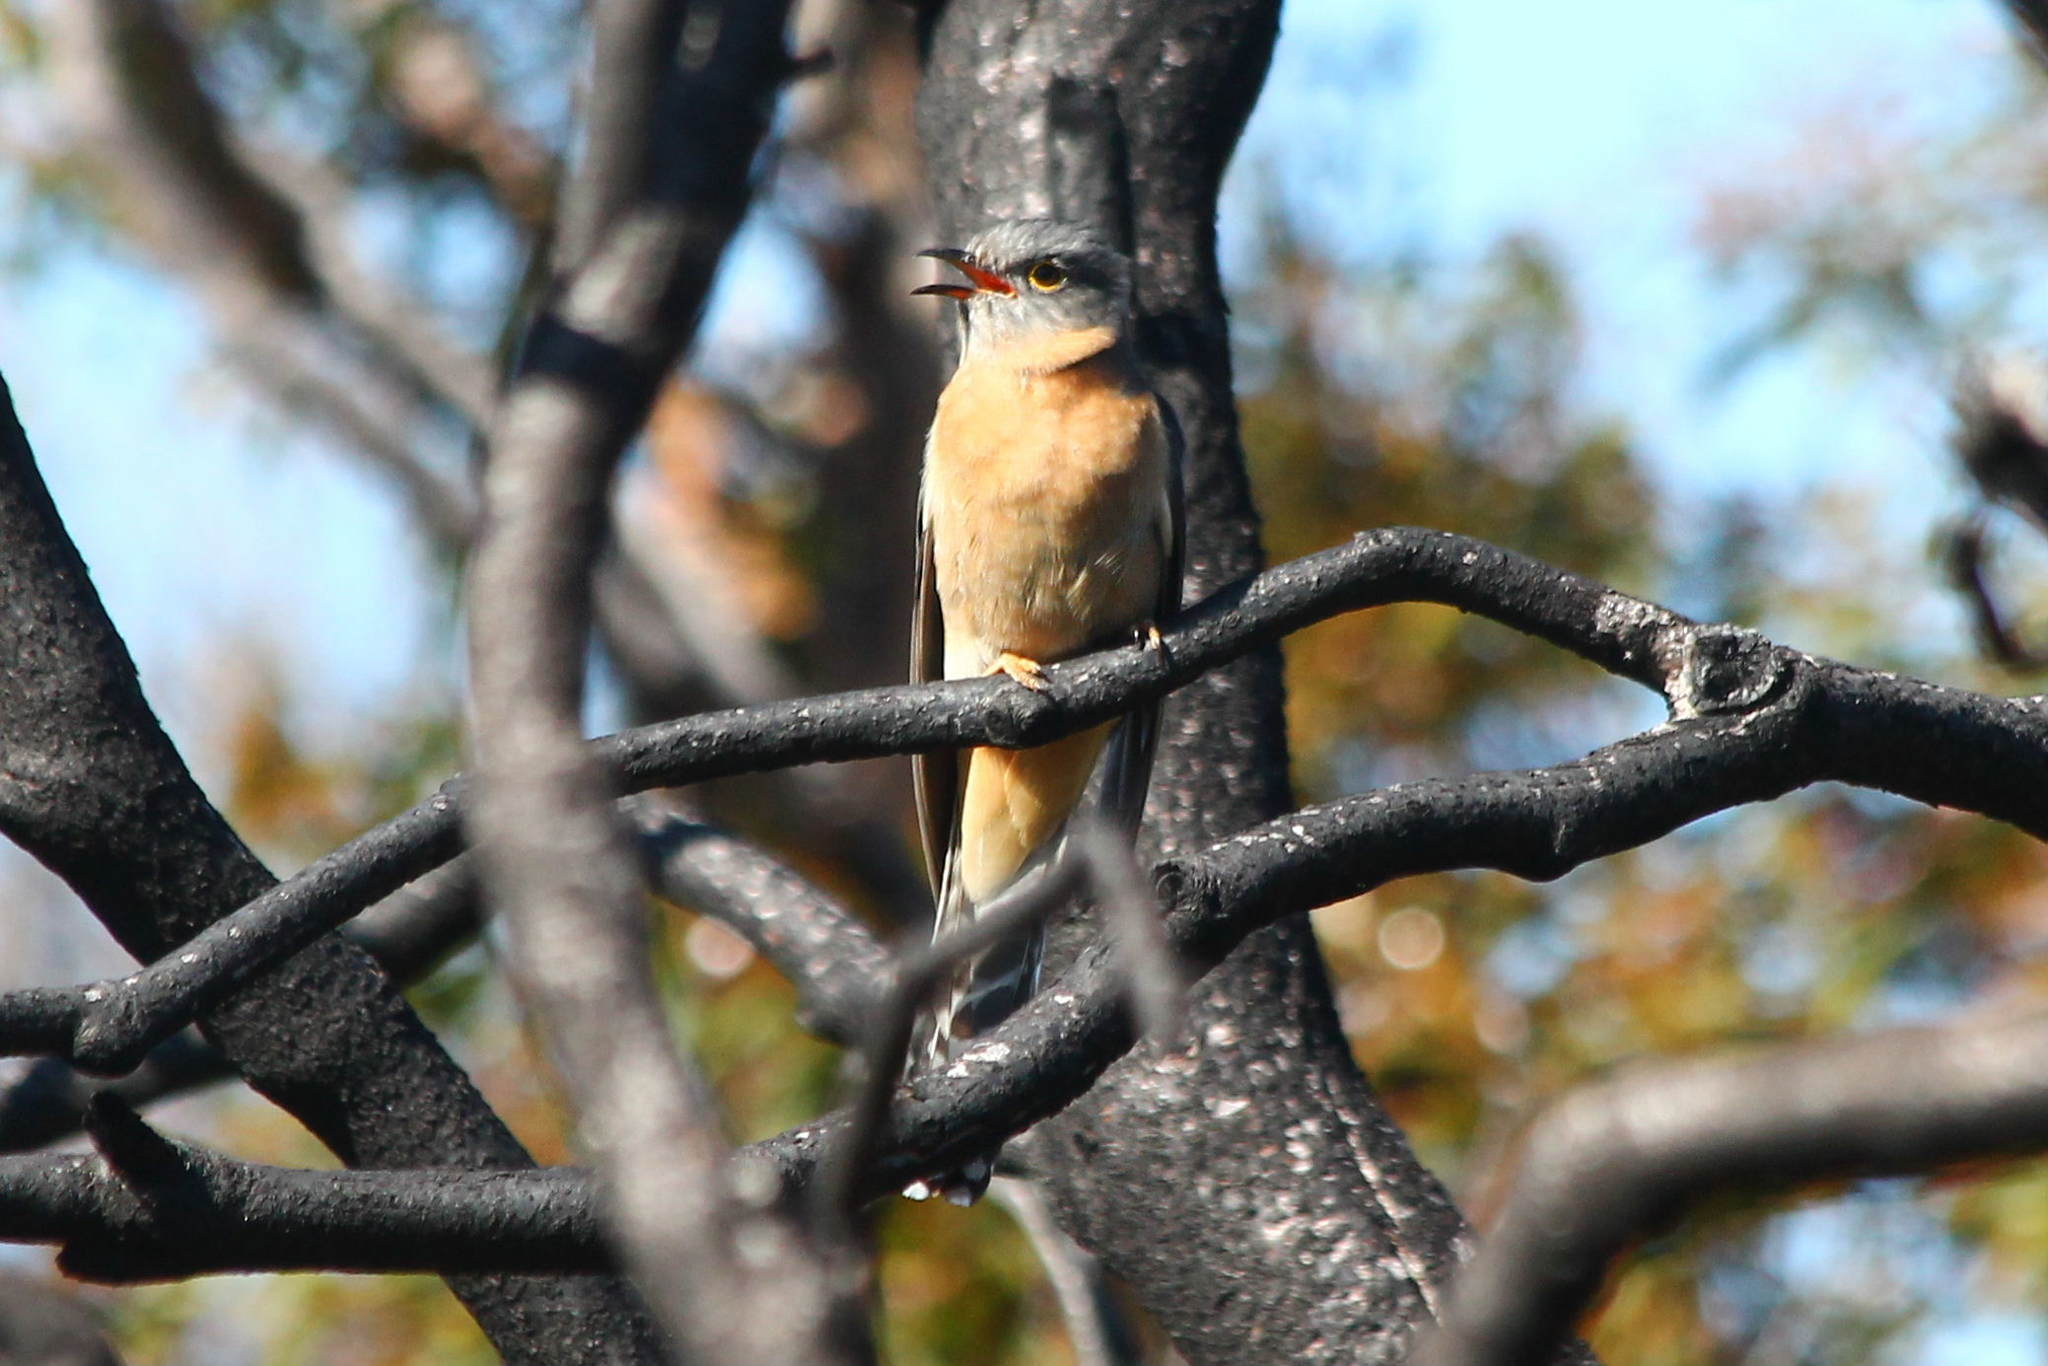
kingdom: Animalia
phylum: Chordata
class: Aves
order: Cuculiformes
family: Cuculidae
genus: Cacomantis
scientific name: Cacomantis flabelliformis
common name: Fan-tailed cuckoo
